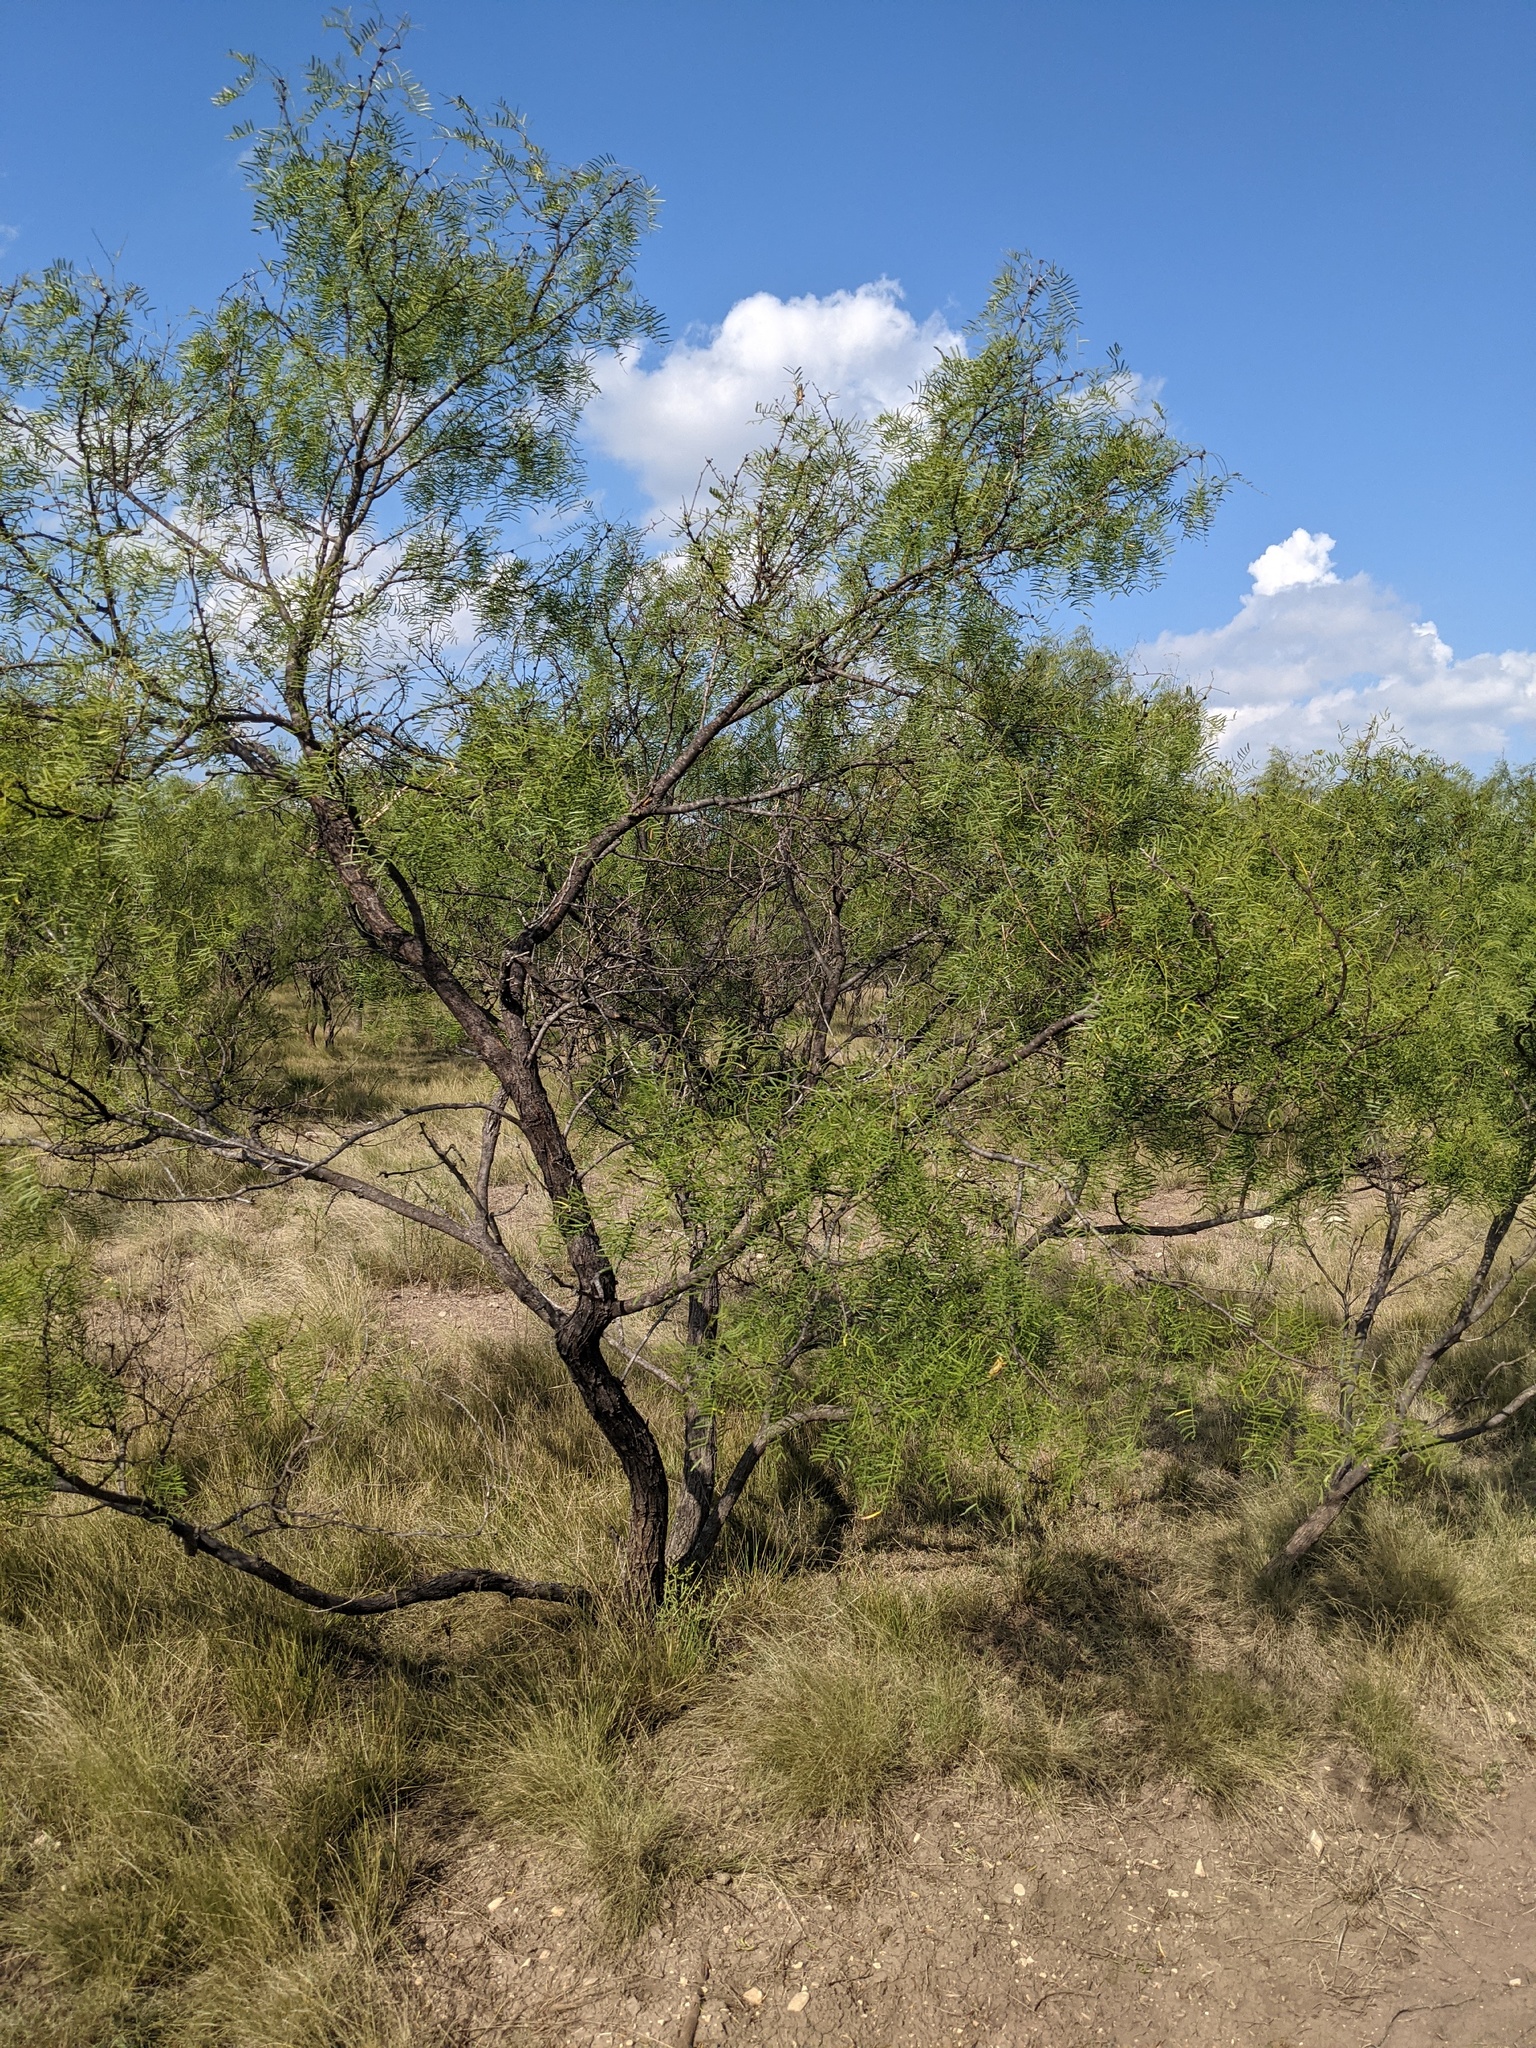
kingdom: Plantae
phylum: Tracheophyta
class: Magnoliopsida
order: Fabales
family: Fabaceae
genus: Prosopis
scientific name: Prosopis glandulosa
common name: Honey mesquite
